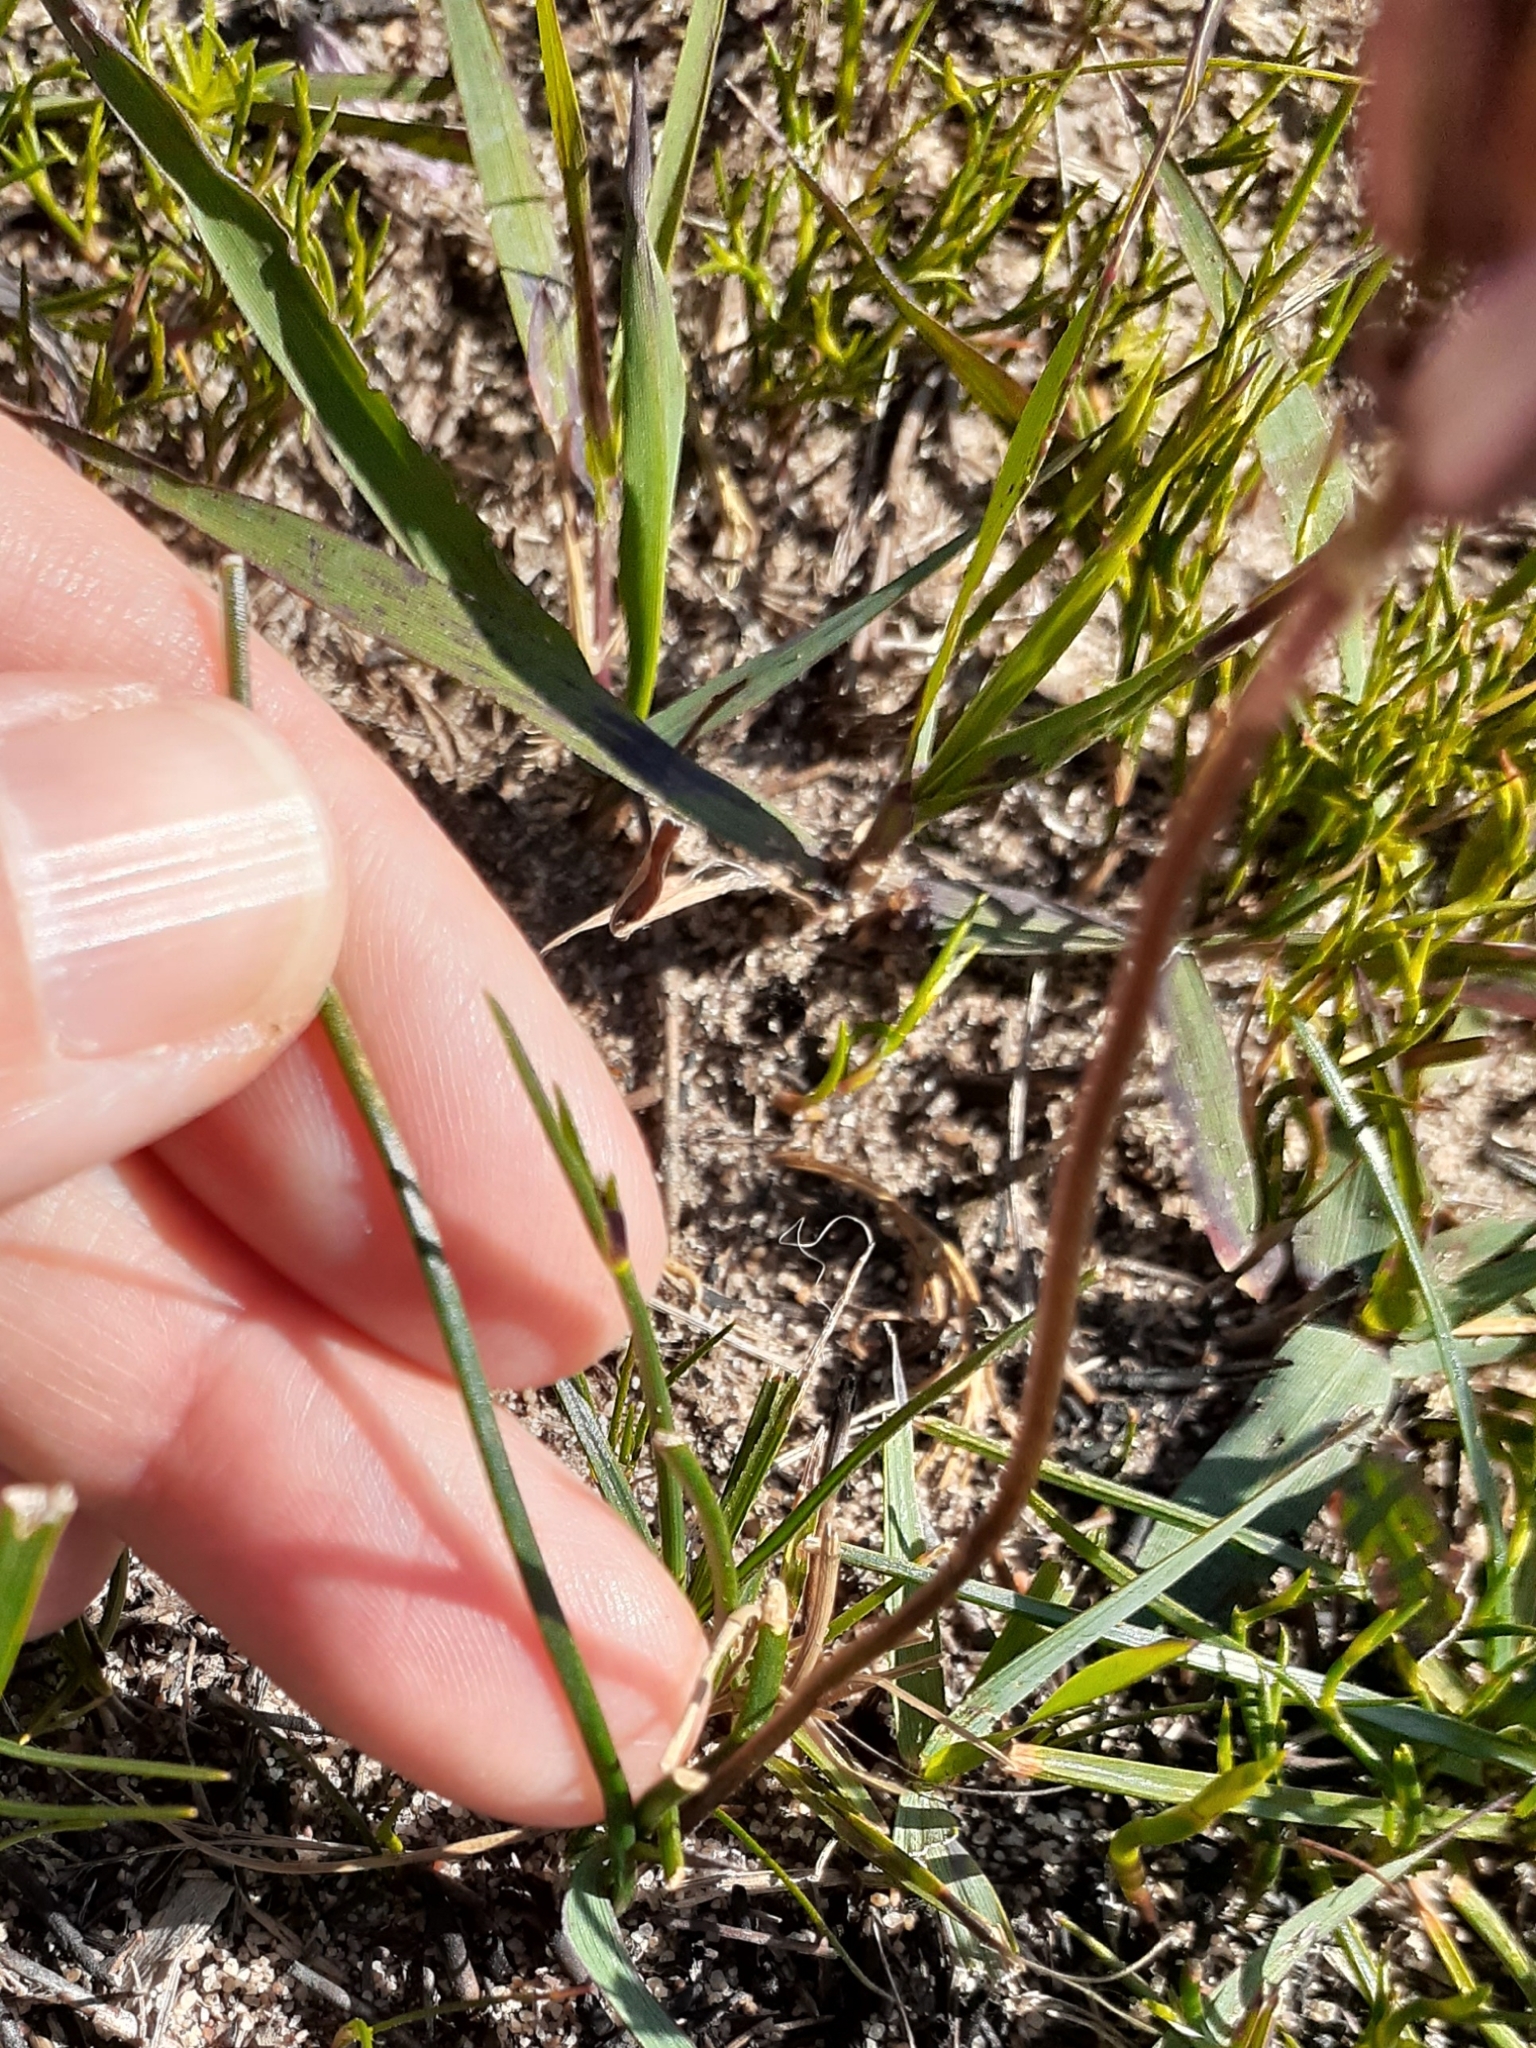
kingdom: Plantae
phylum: Tracheophyta
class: Liliopsida
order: Asparagales
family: Asparagaceae
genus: Drimia
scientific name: Drimia exuviata
